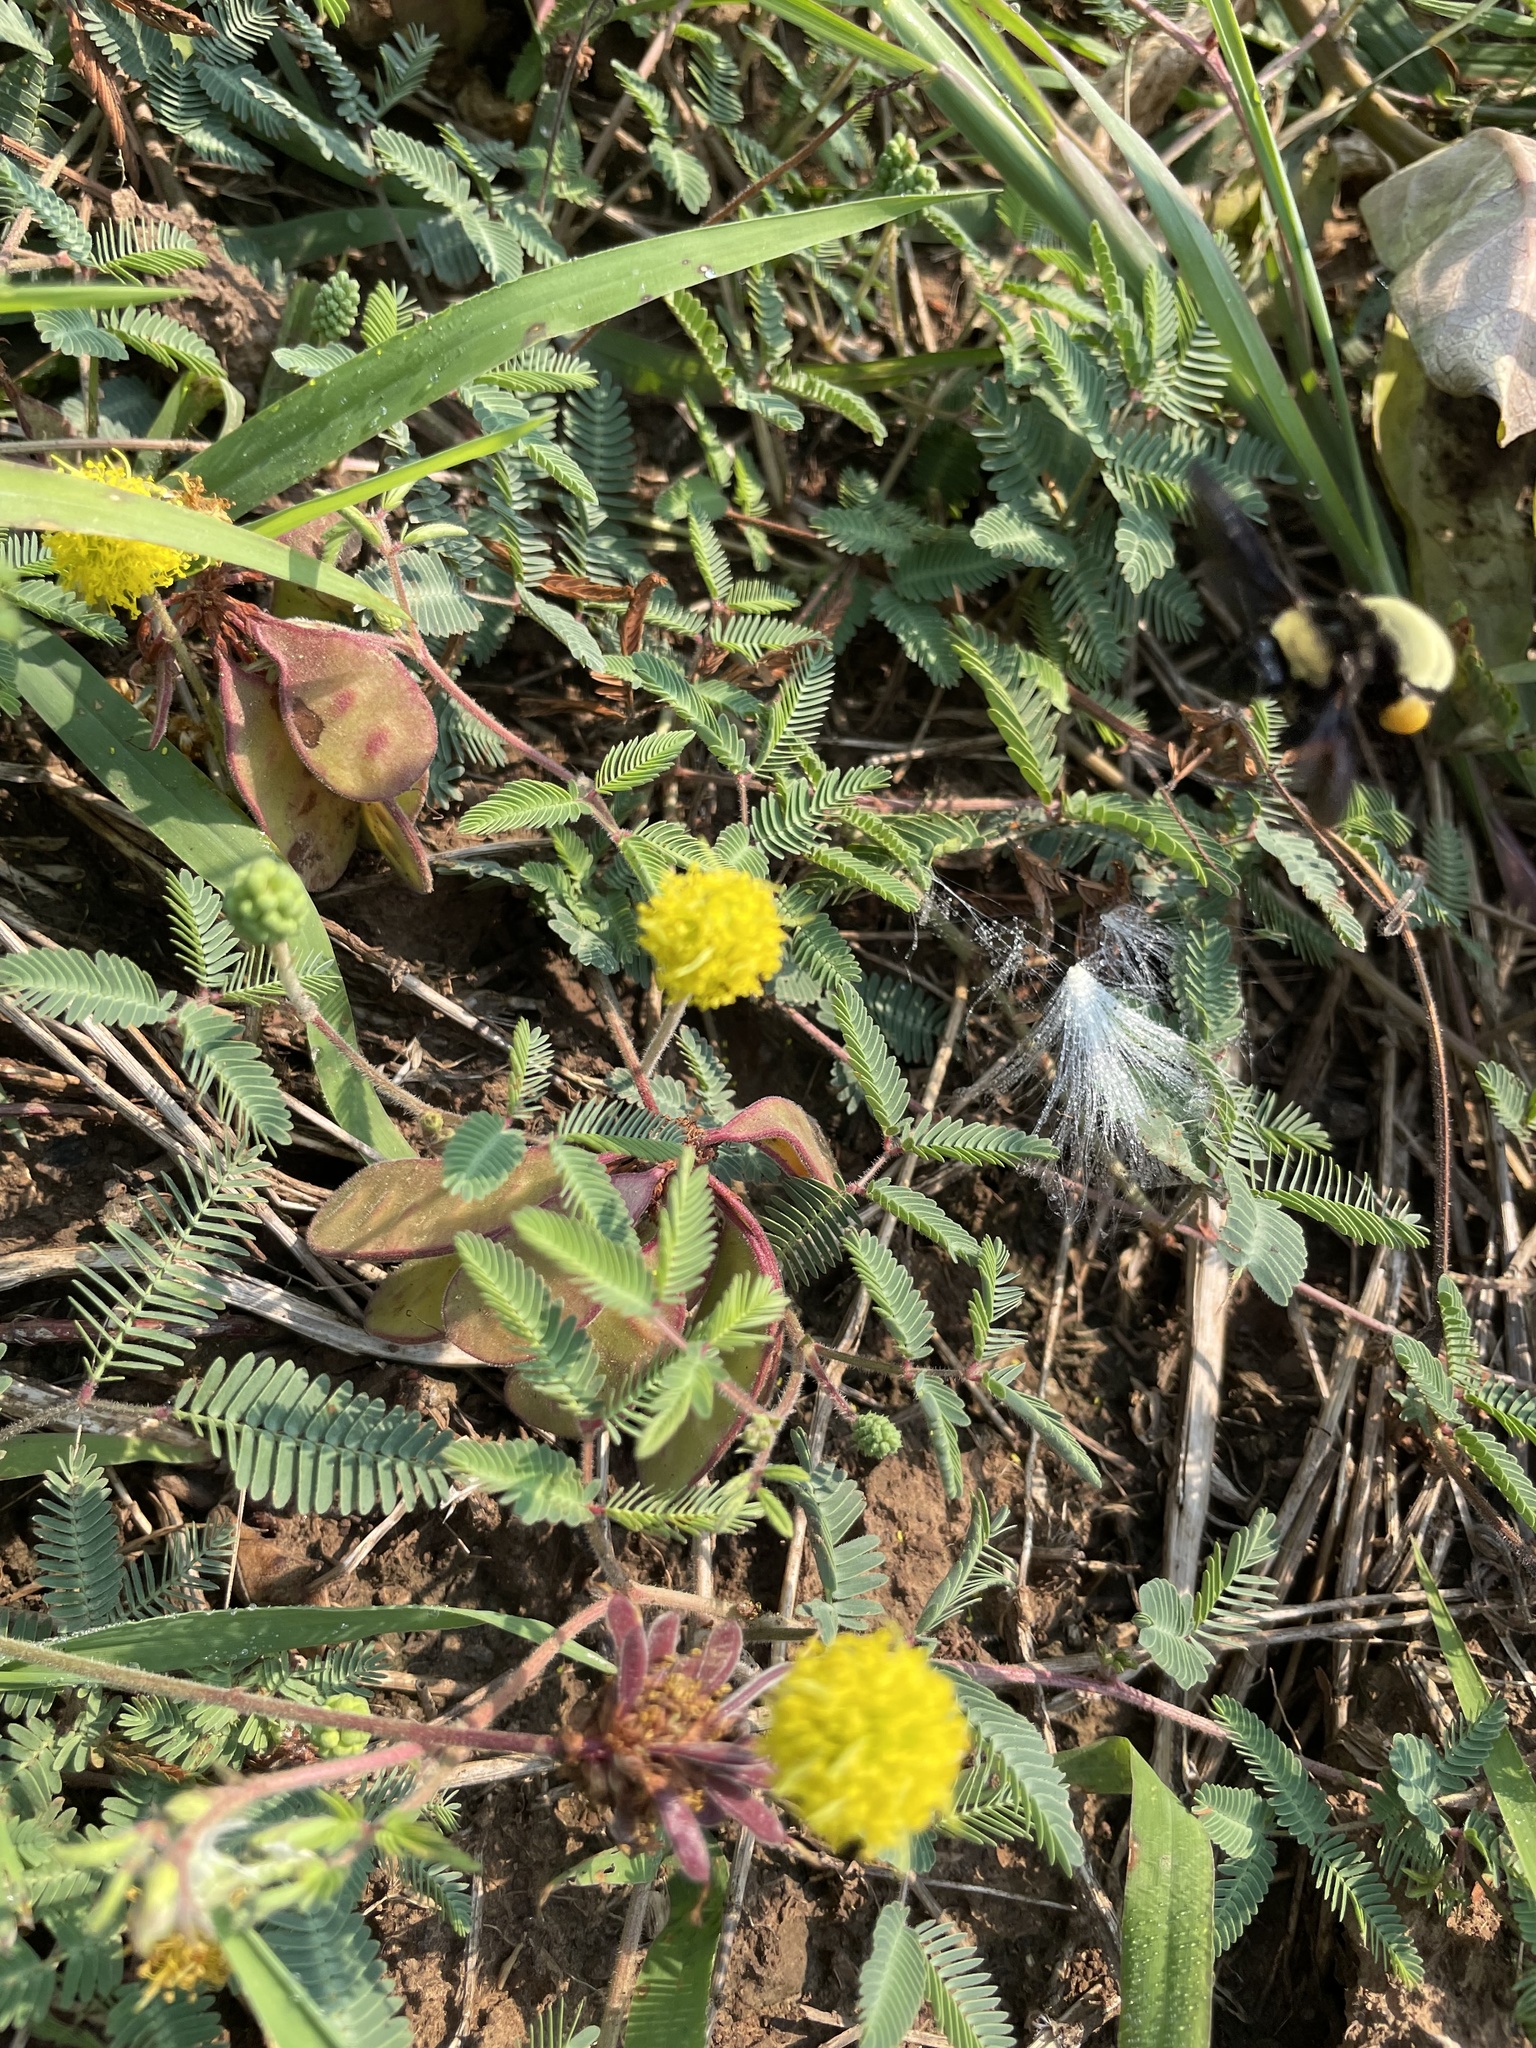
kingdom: Animalia
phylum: Arthropoda
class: Insecta
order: Hymenoptera
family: Apidae
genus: Bombus
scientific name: Bombus pensylvanicus
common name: Bumble bee
